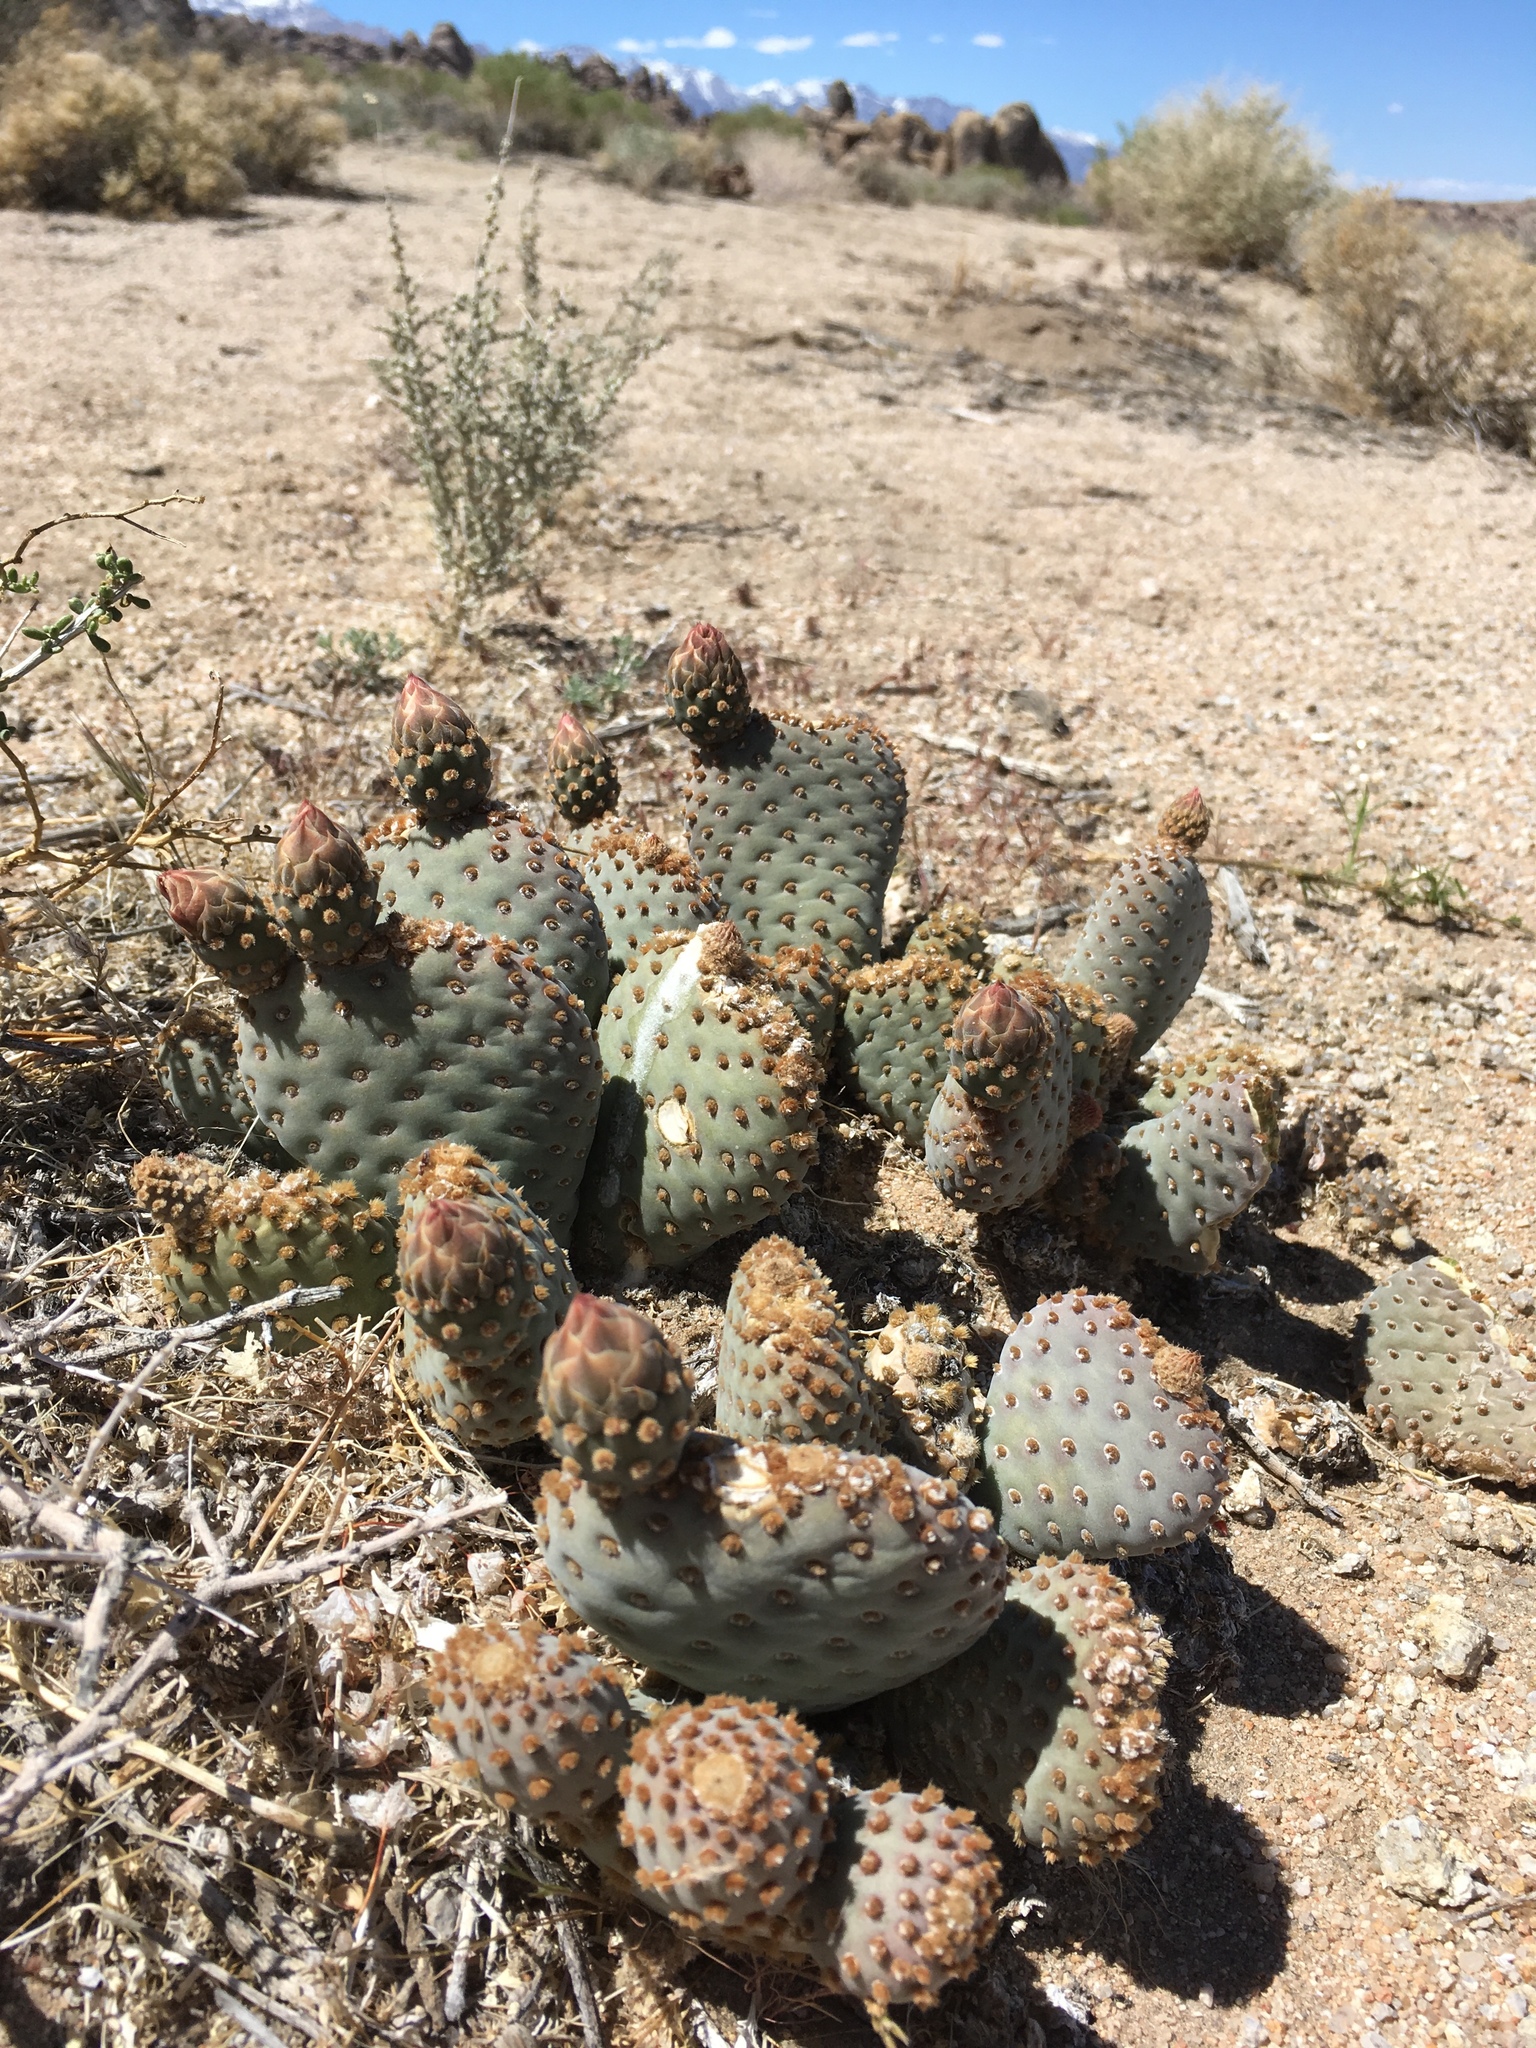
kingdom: Plantae
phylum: Tracheophyta
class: Magnoliopsida
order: Caryophyllales
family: Cactaceae
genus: Opuntia
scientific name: Opuntia basilaris
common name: Beavertail prickly-pear
